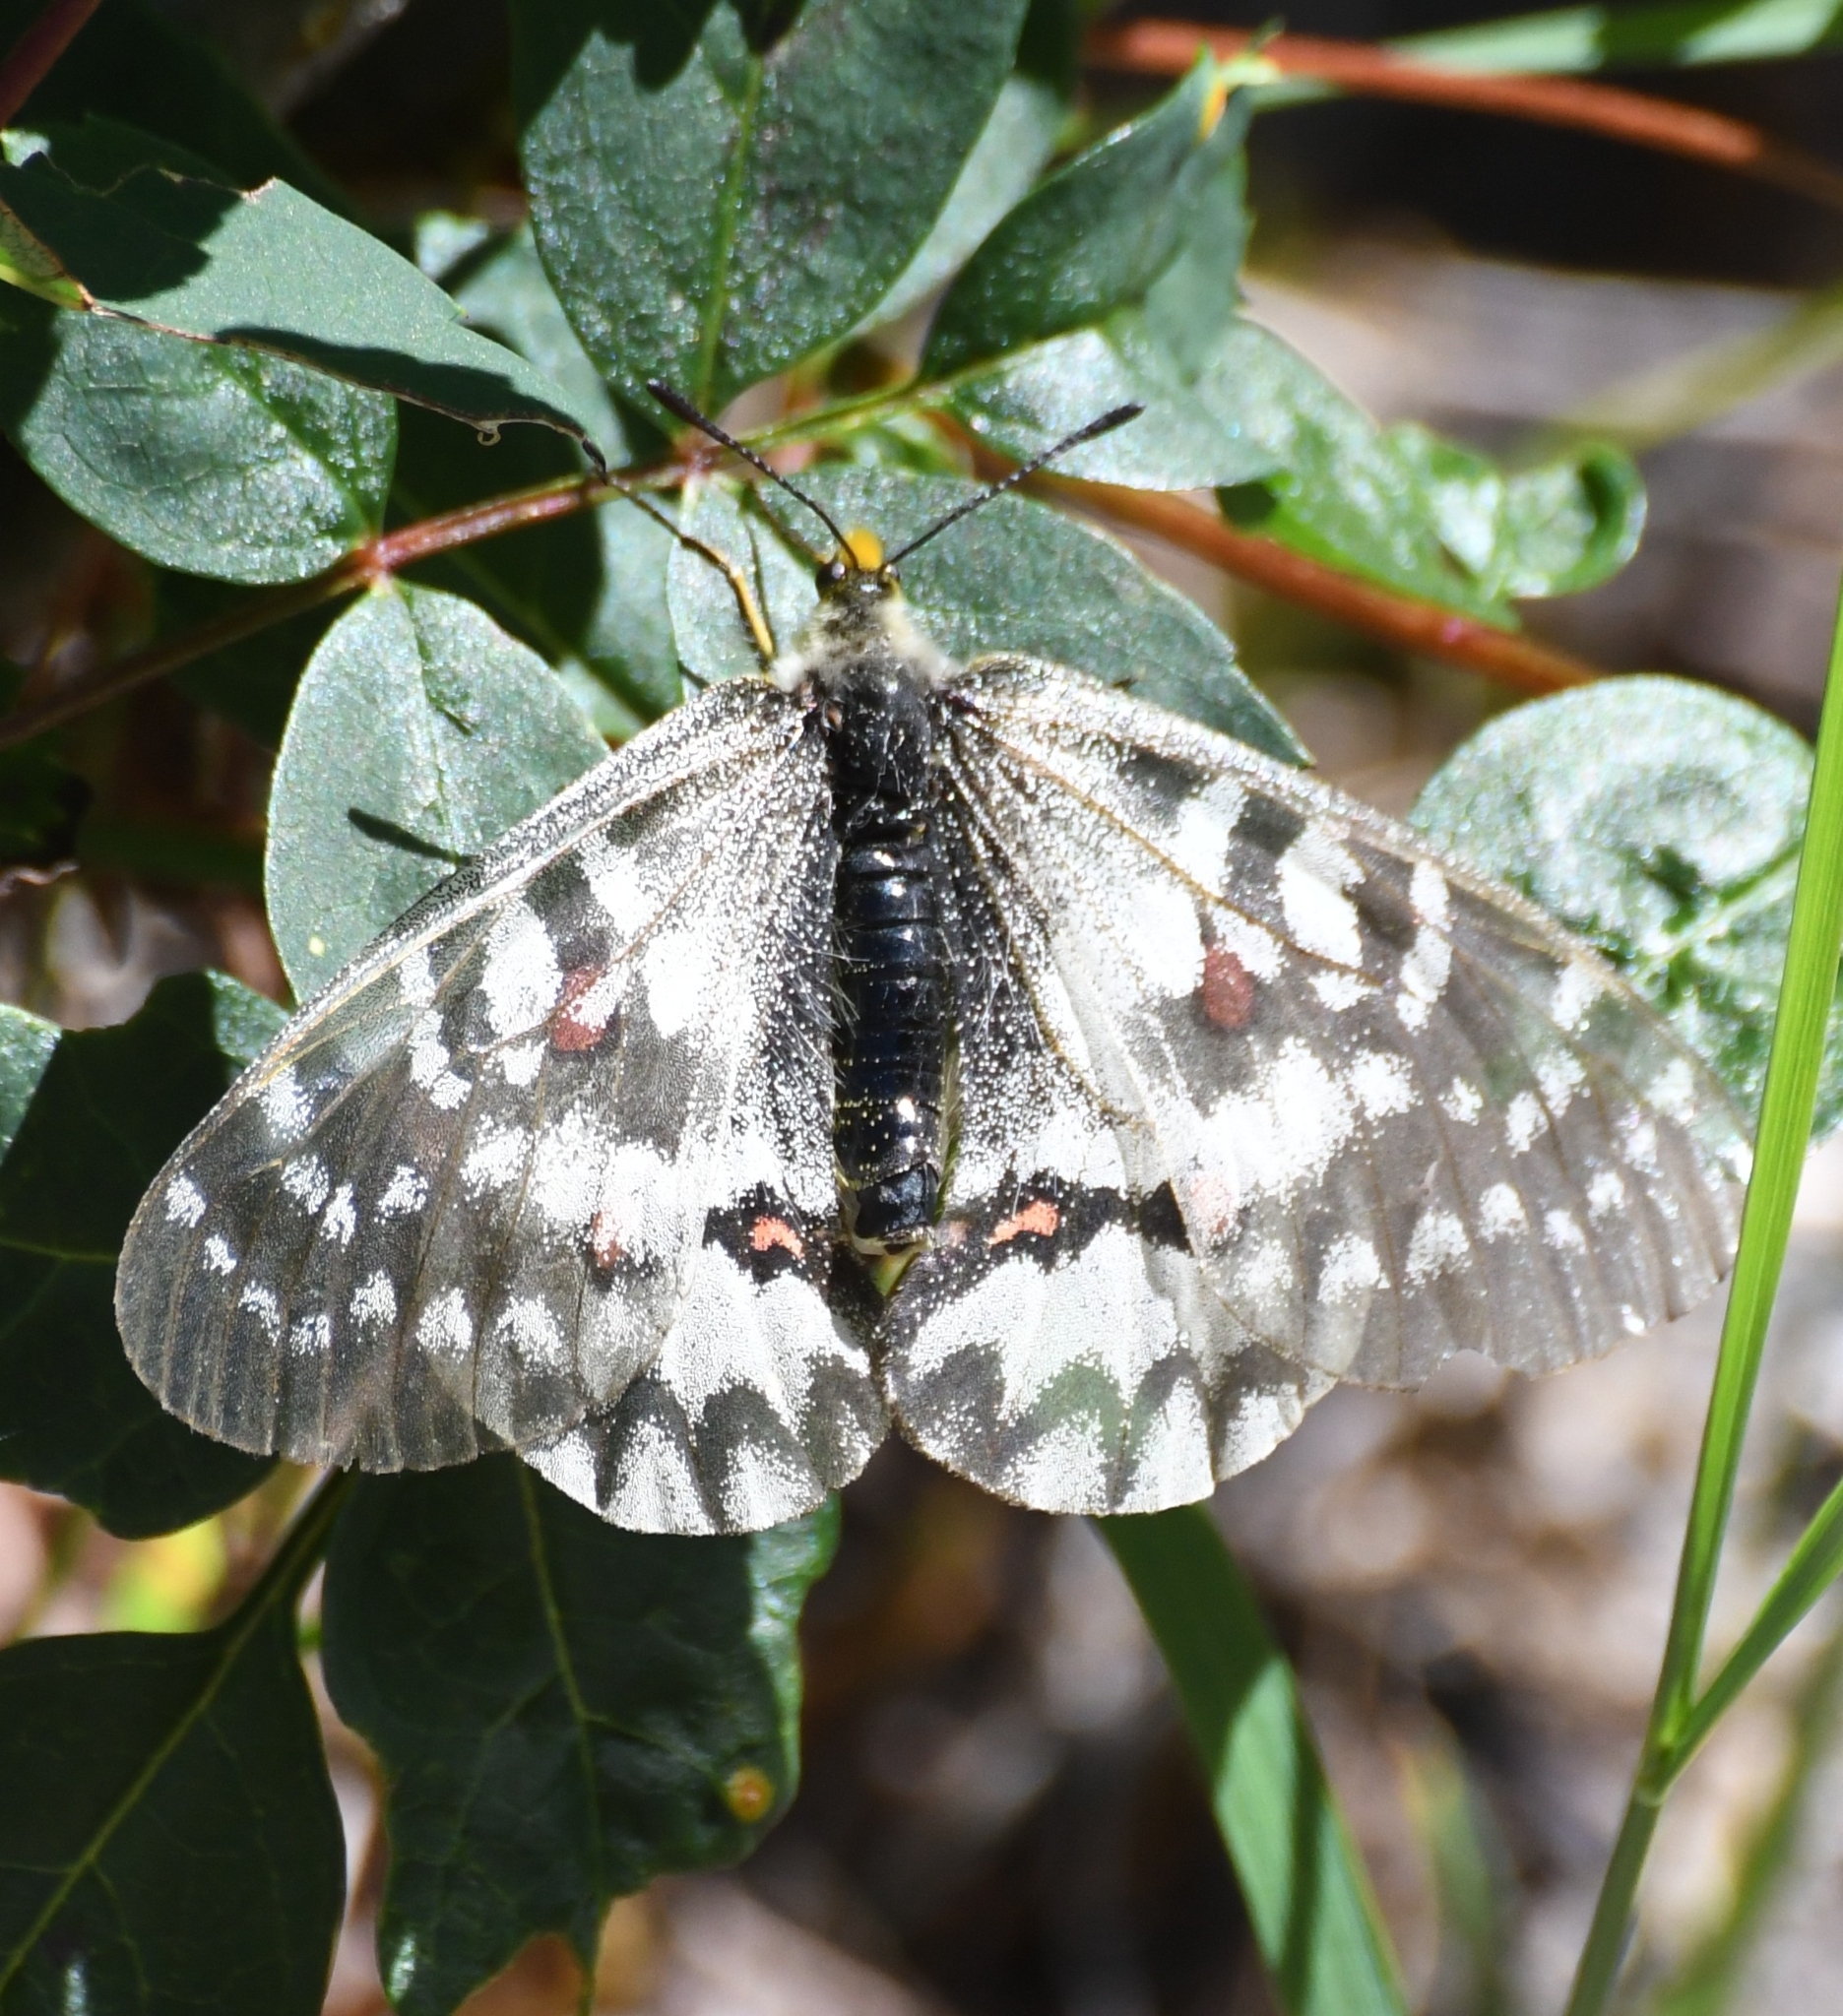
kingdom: Animalia
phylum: Arthropoda
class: Insecta
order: Lepidoptera
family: Papilionidae
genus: Parnassius
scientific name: Parnassius clodius
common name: American apollo
